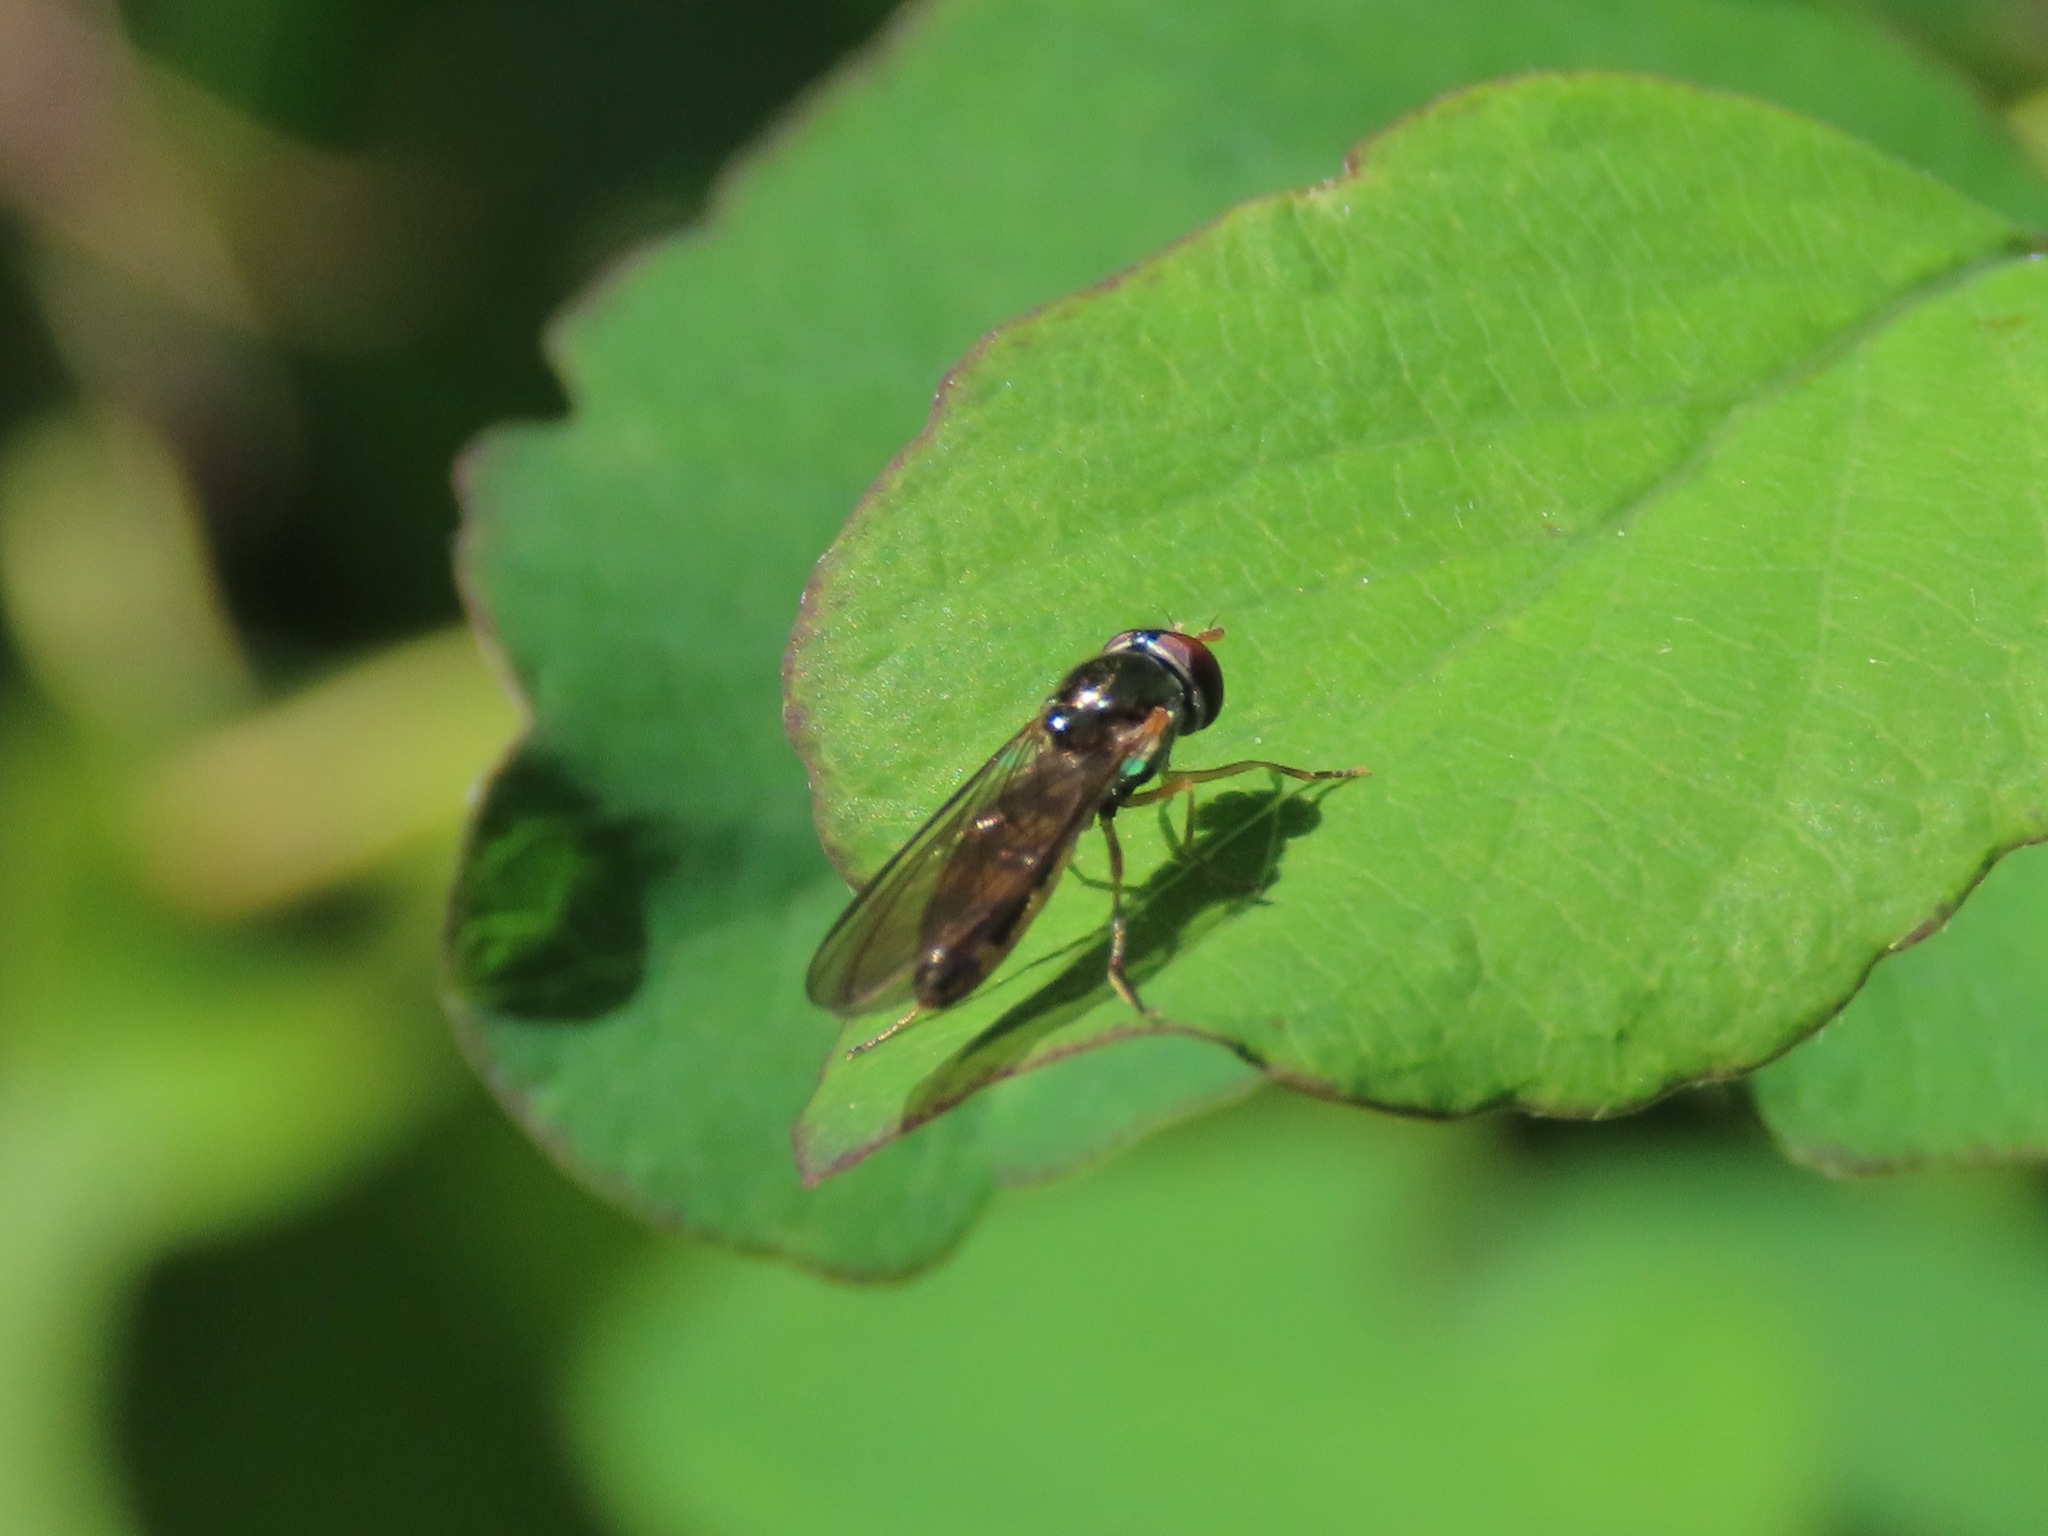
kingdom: Animalia
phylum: Arthropoda
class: Insecta
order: Diptera
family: Syrphidae
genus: Melanostoma
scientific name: Melanostoma mellina
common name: Hover fly
